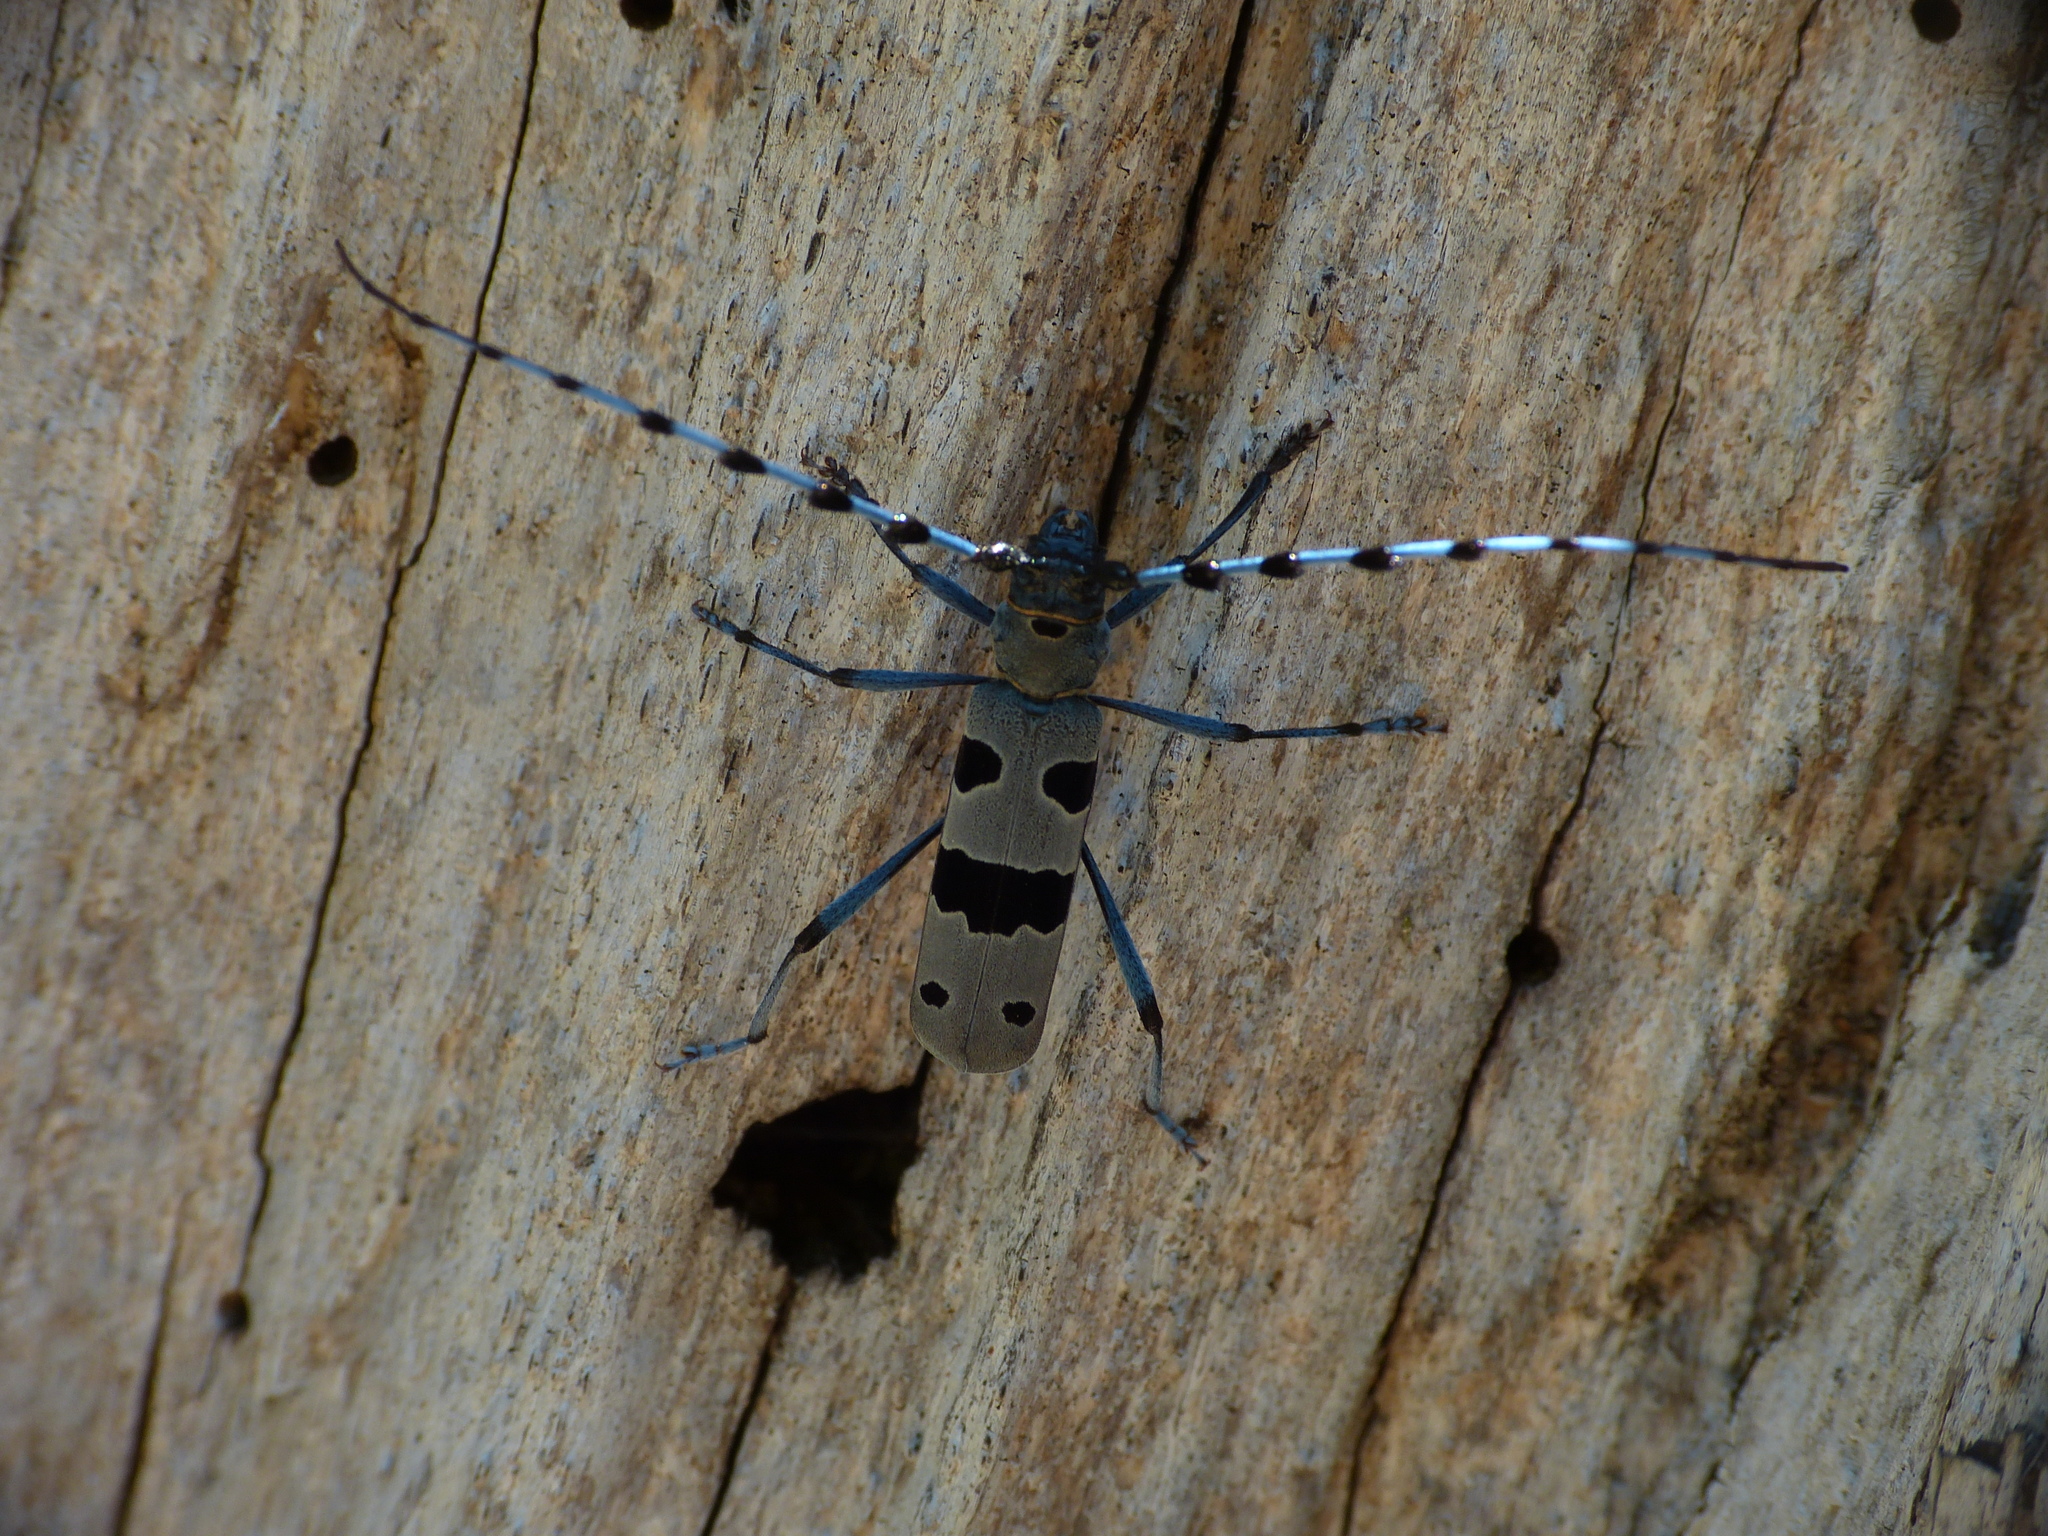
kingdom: Animalia
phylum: Arthropoda
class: Insecta
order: Coleoptera
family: Cerambycidae
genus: Rosalia
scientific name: Rosalia alpina
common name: Rosalia longicorn
